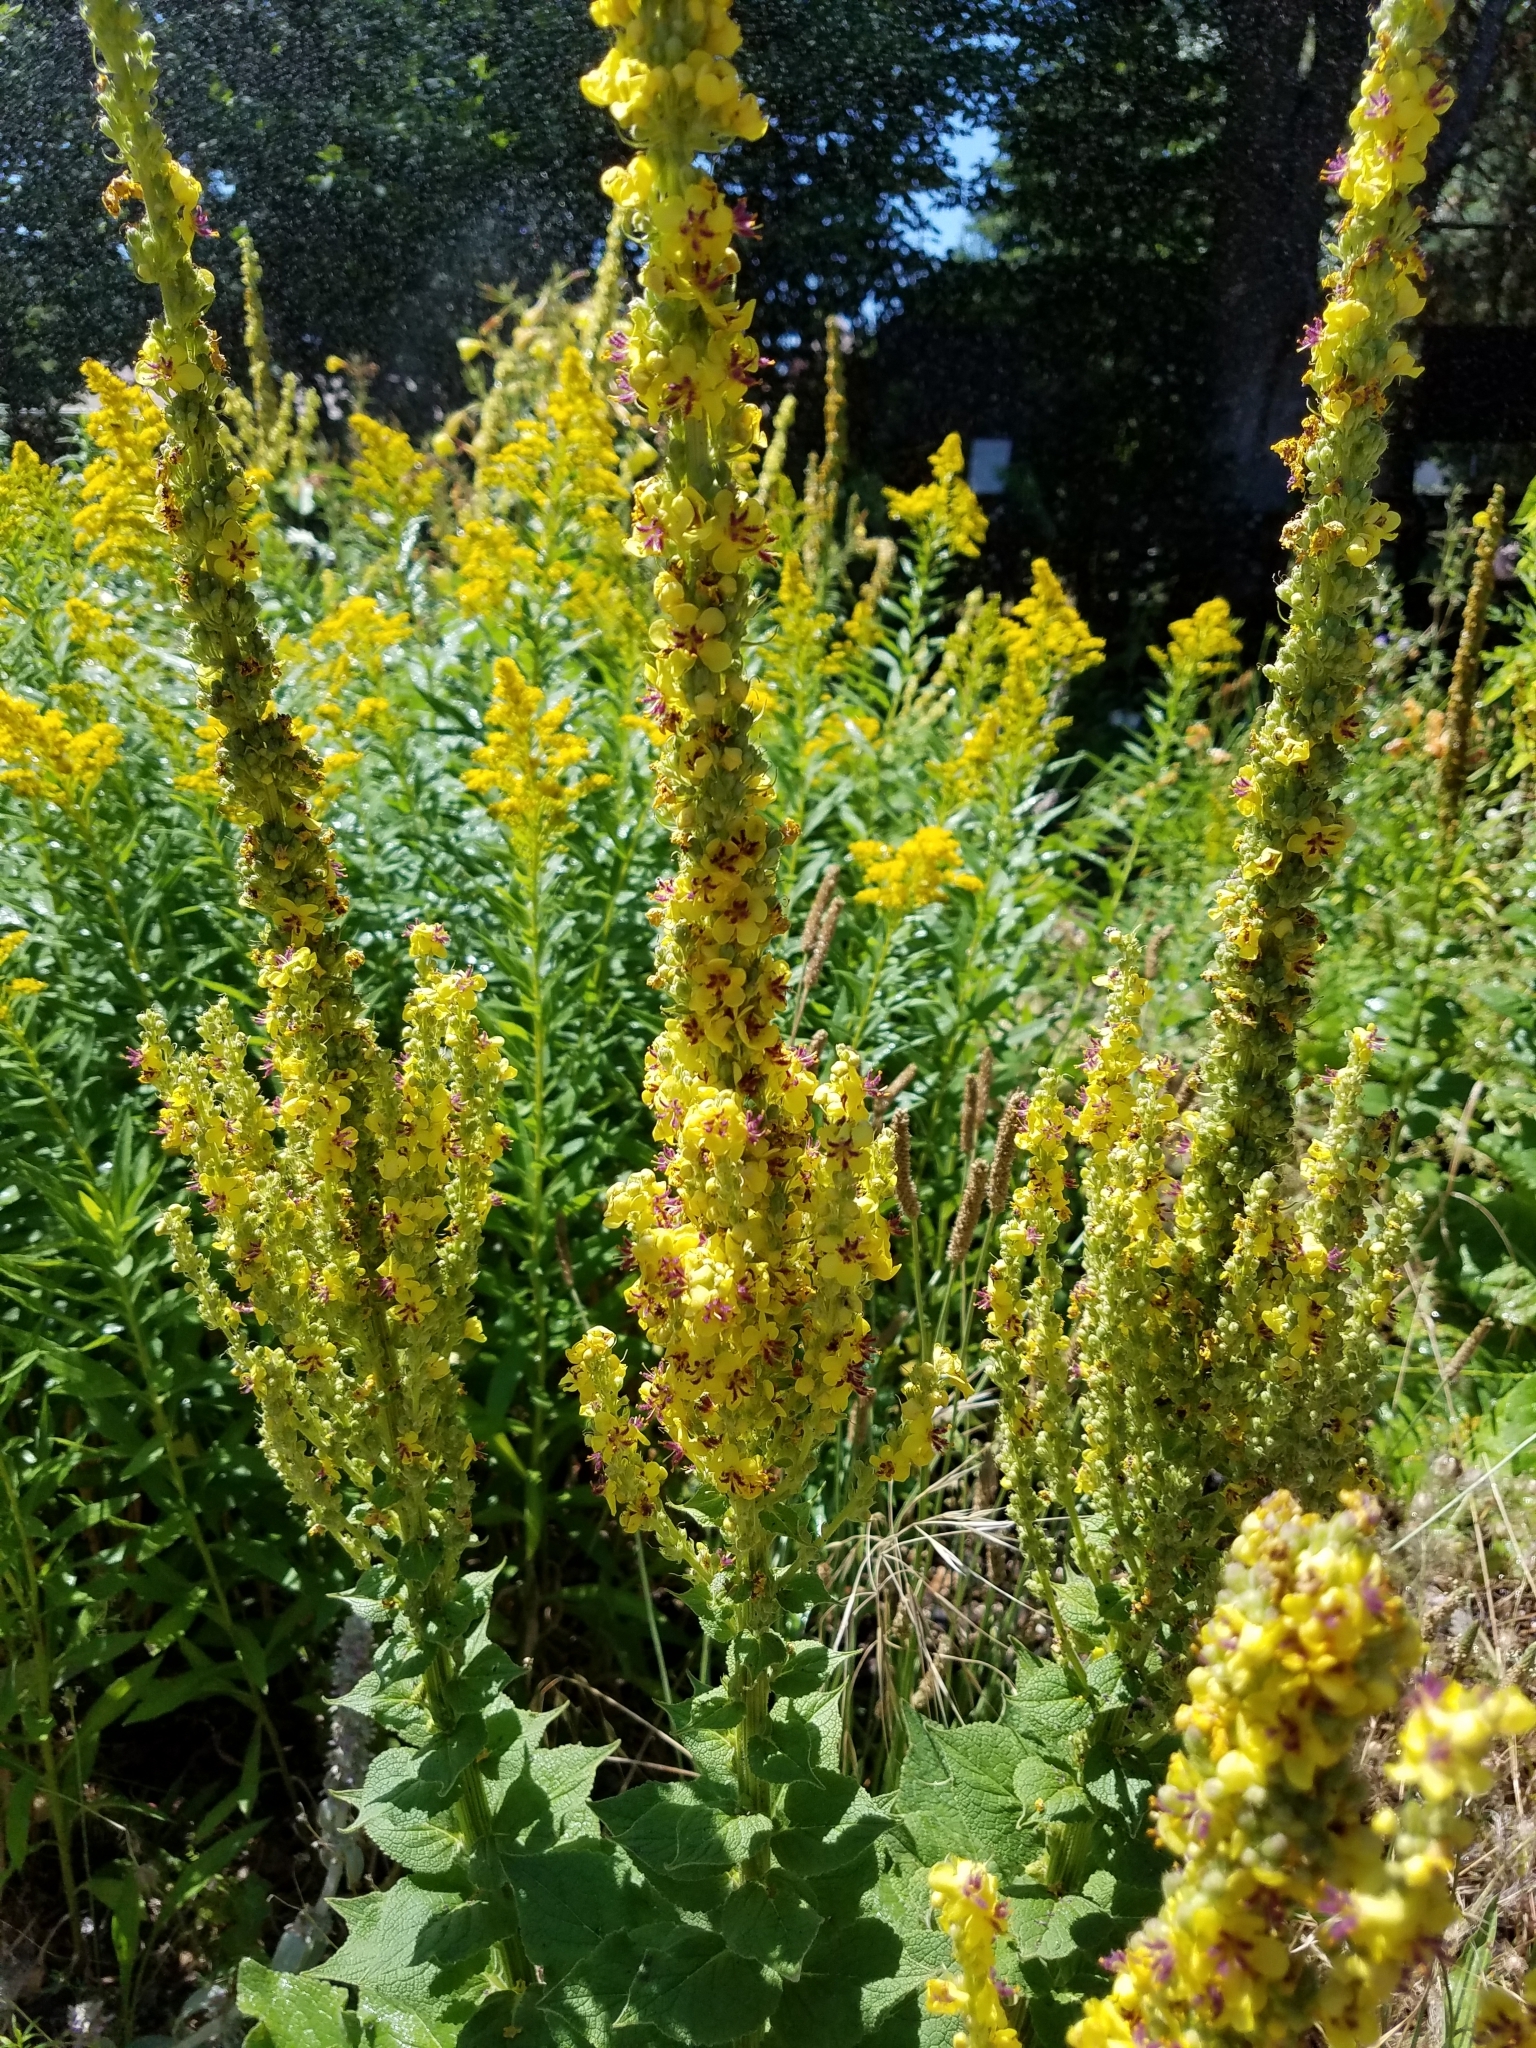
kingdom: Plantae
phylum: Tracheophyta
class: Magnoliopsida
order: Lamiales
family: Scrophulariaceae
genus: Verbascum
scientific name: Verbascum nigrum
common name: Dark mullein
